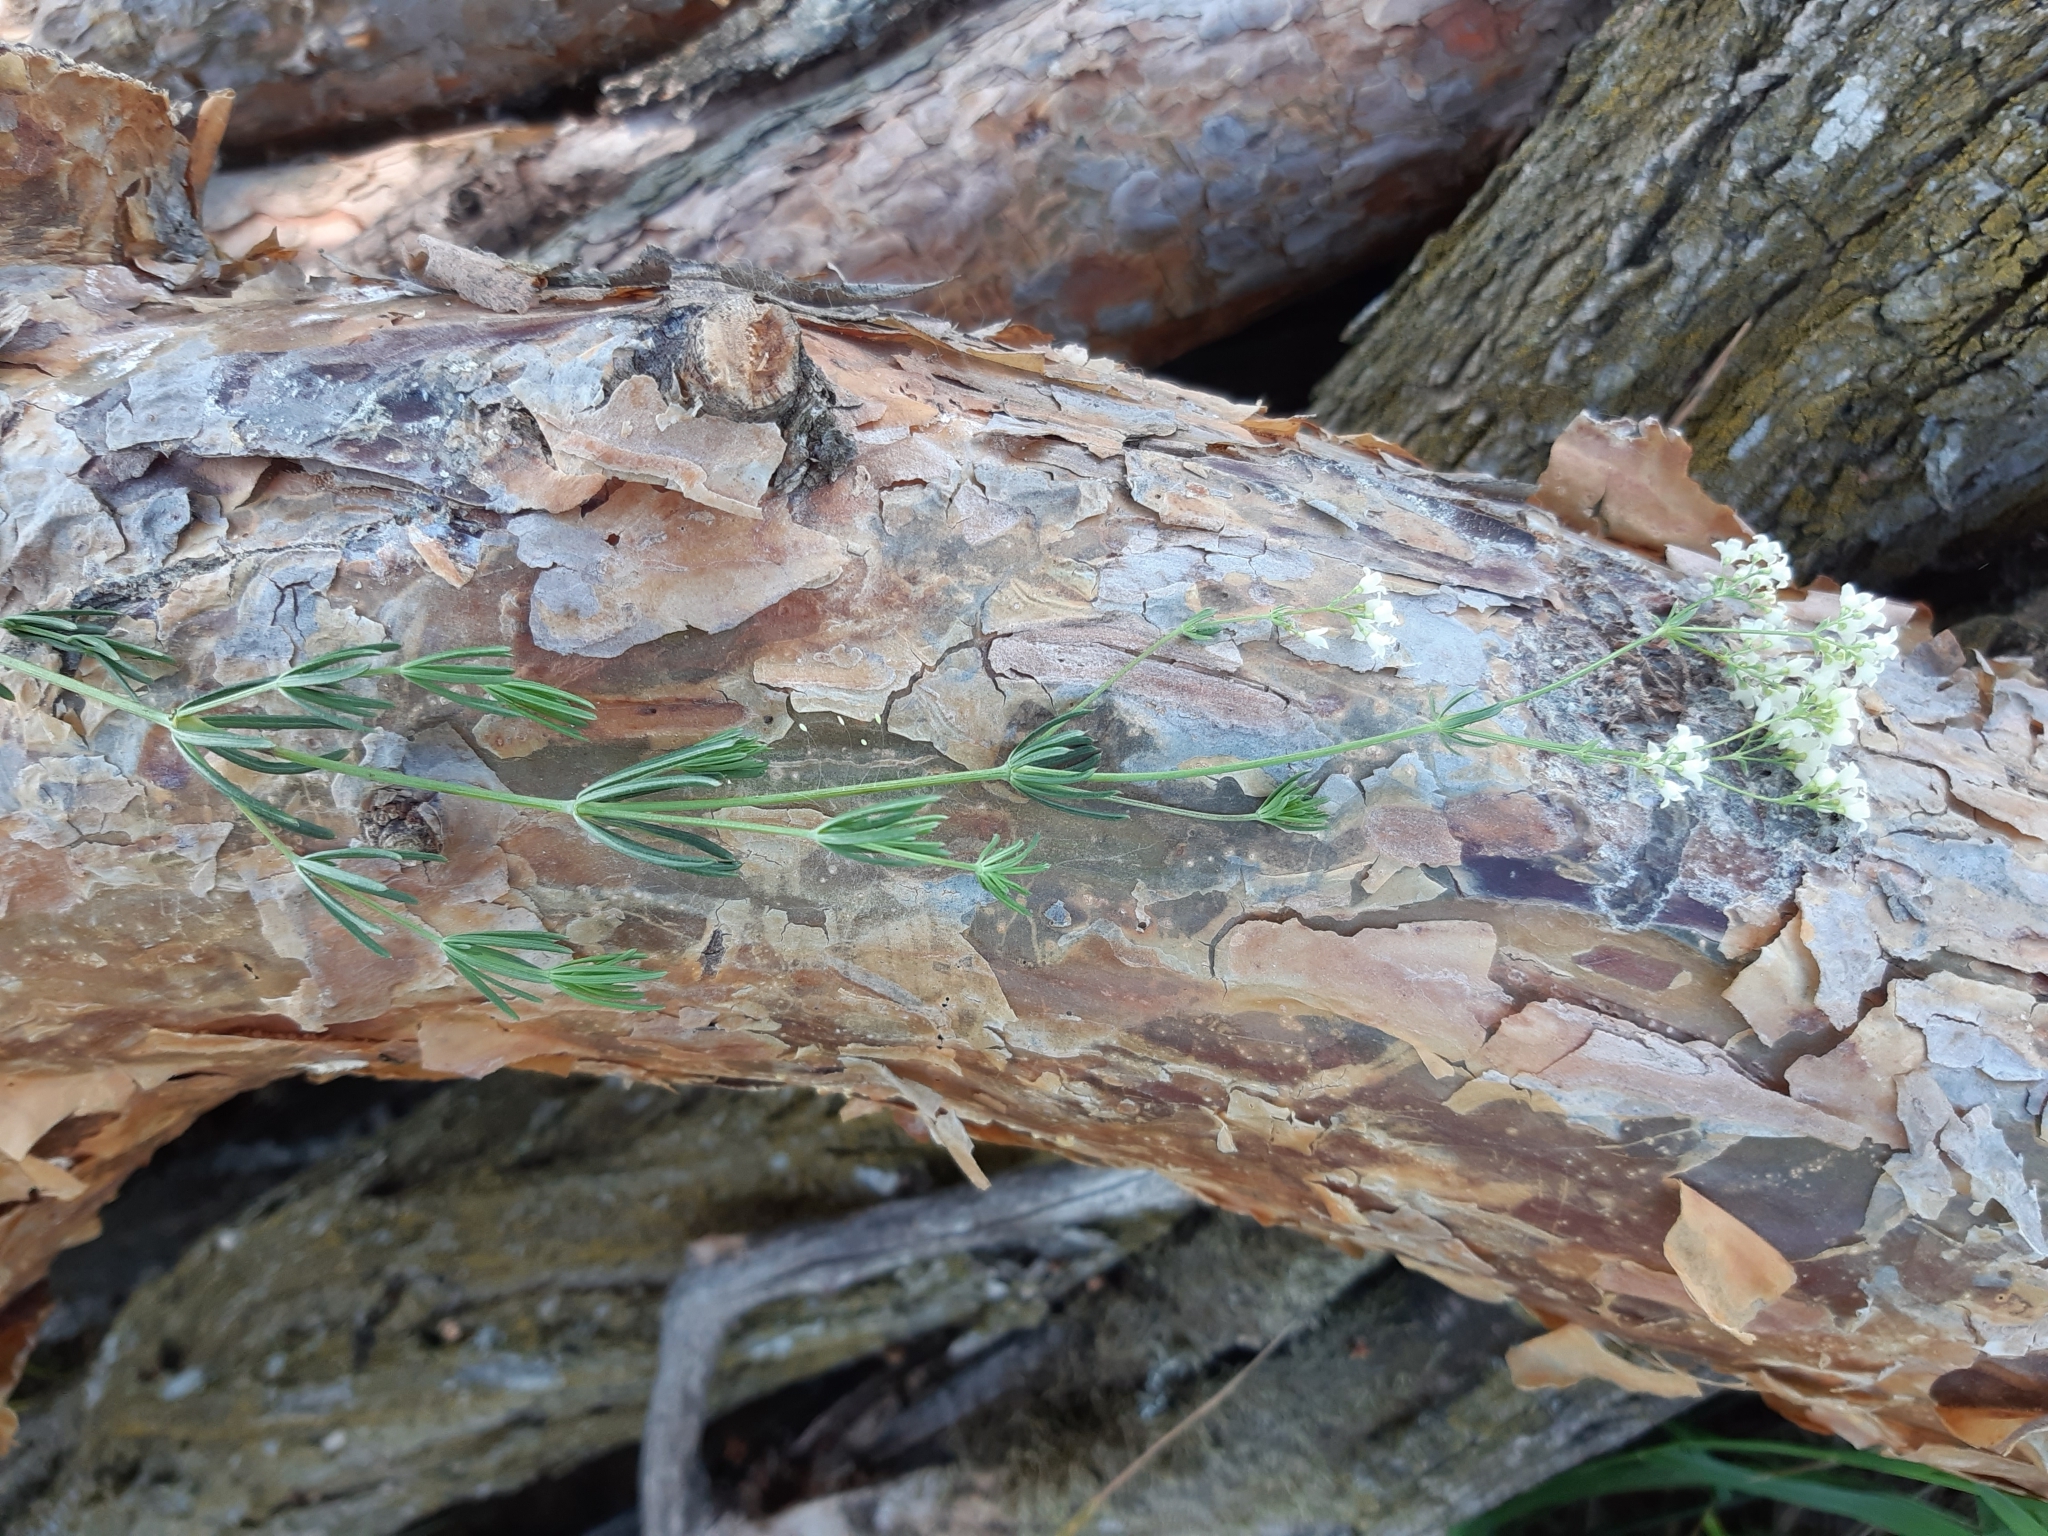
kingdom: Plantae
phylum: Tracheophyta
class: Magnoliopsida
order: Gentianales
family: Rubiaceae
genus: Galium
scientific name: Galium glaucum
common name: Waxy bedstraw
